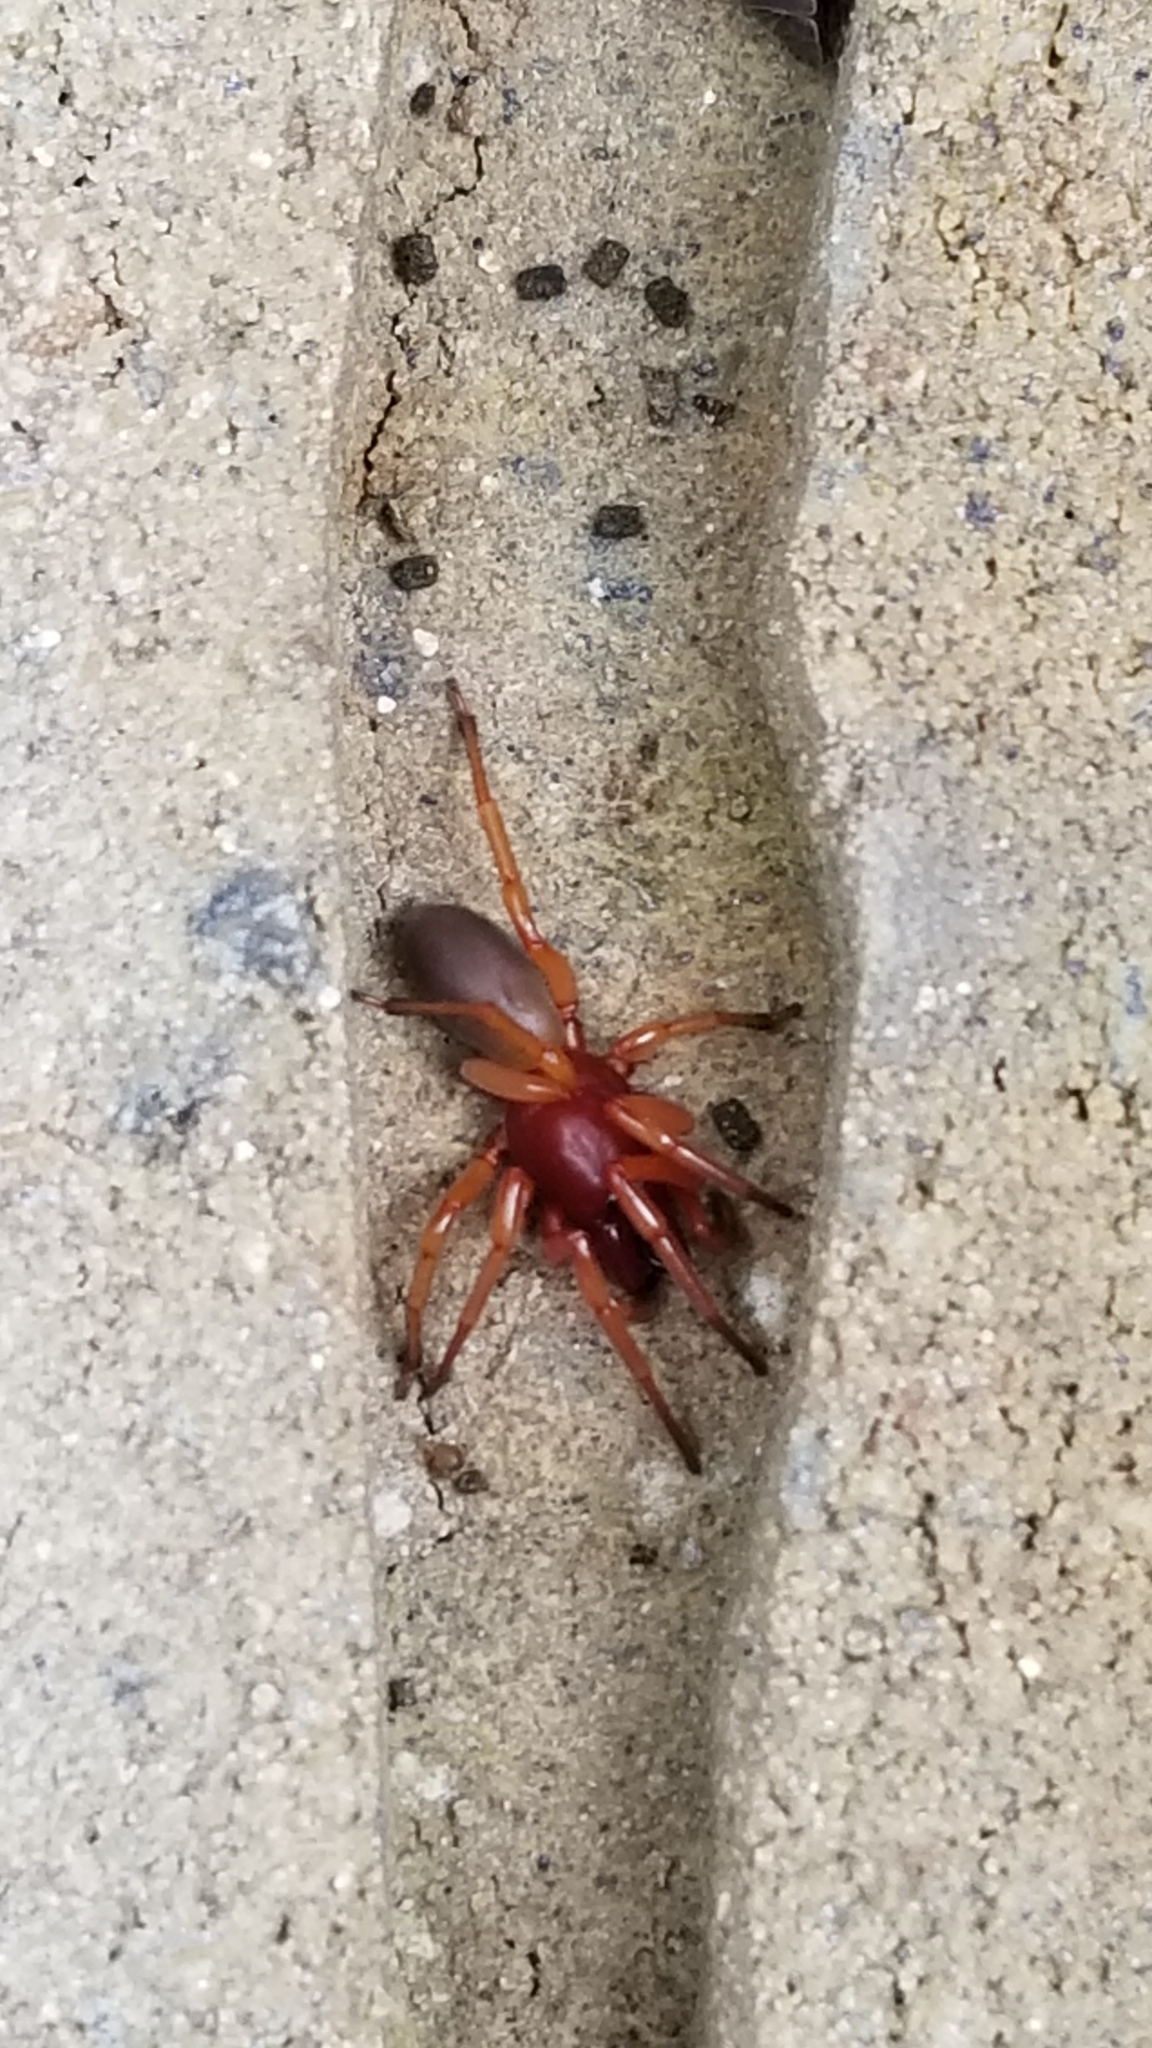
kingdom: Animalia
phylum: Arthropoda
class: Arachnida
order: Araneae
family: Dysderidae
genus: Dysdera
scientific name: Dysdera crocata
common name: Woodlouse spider
